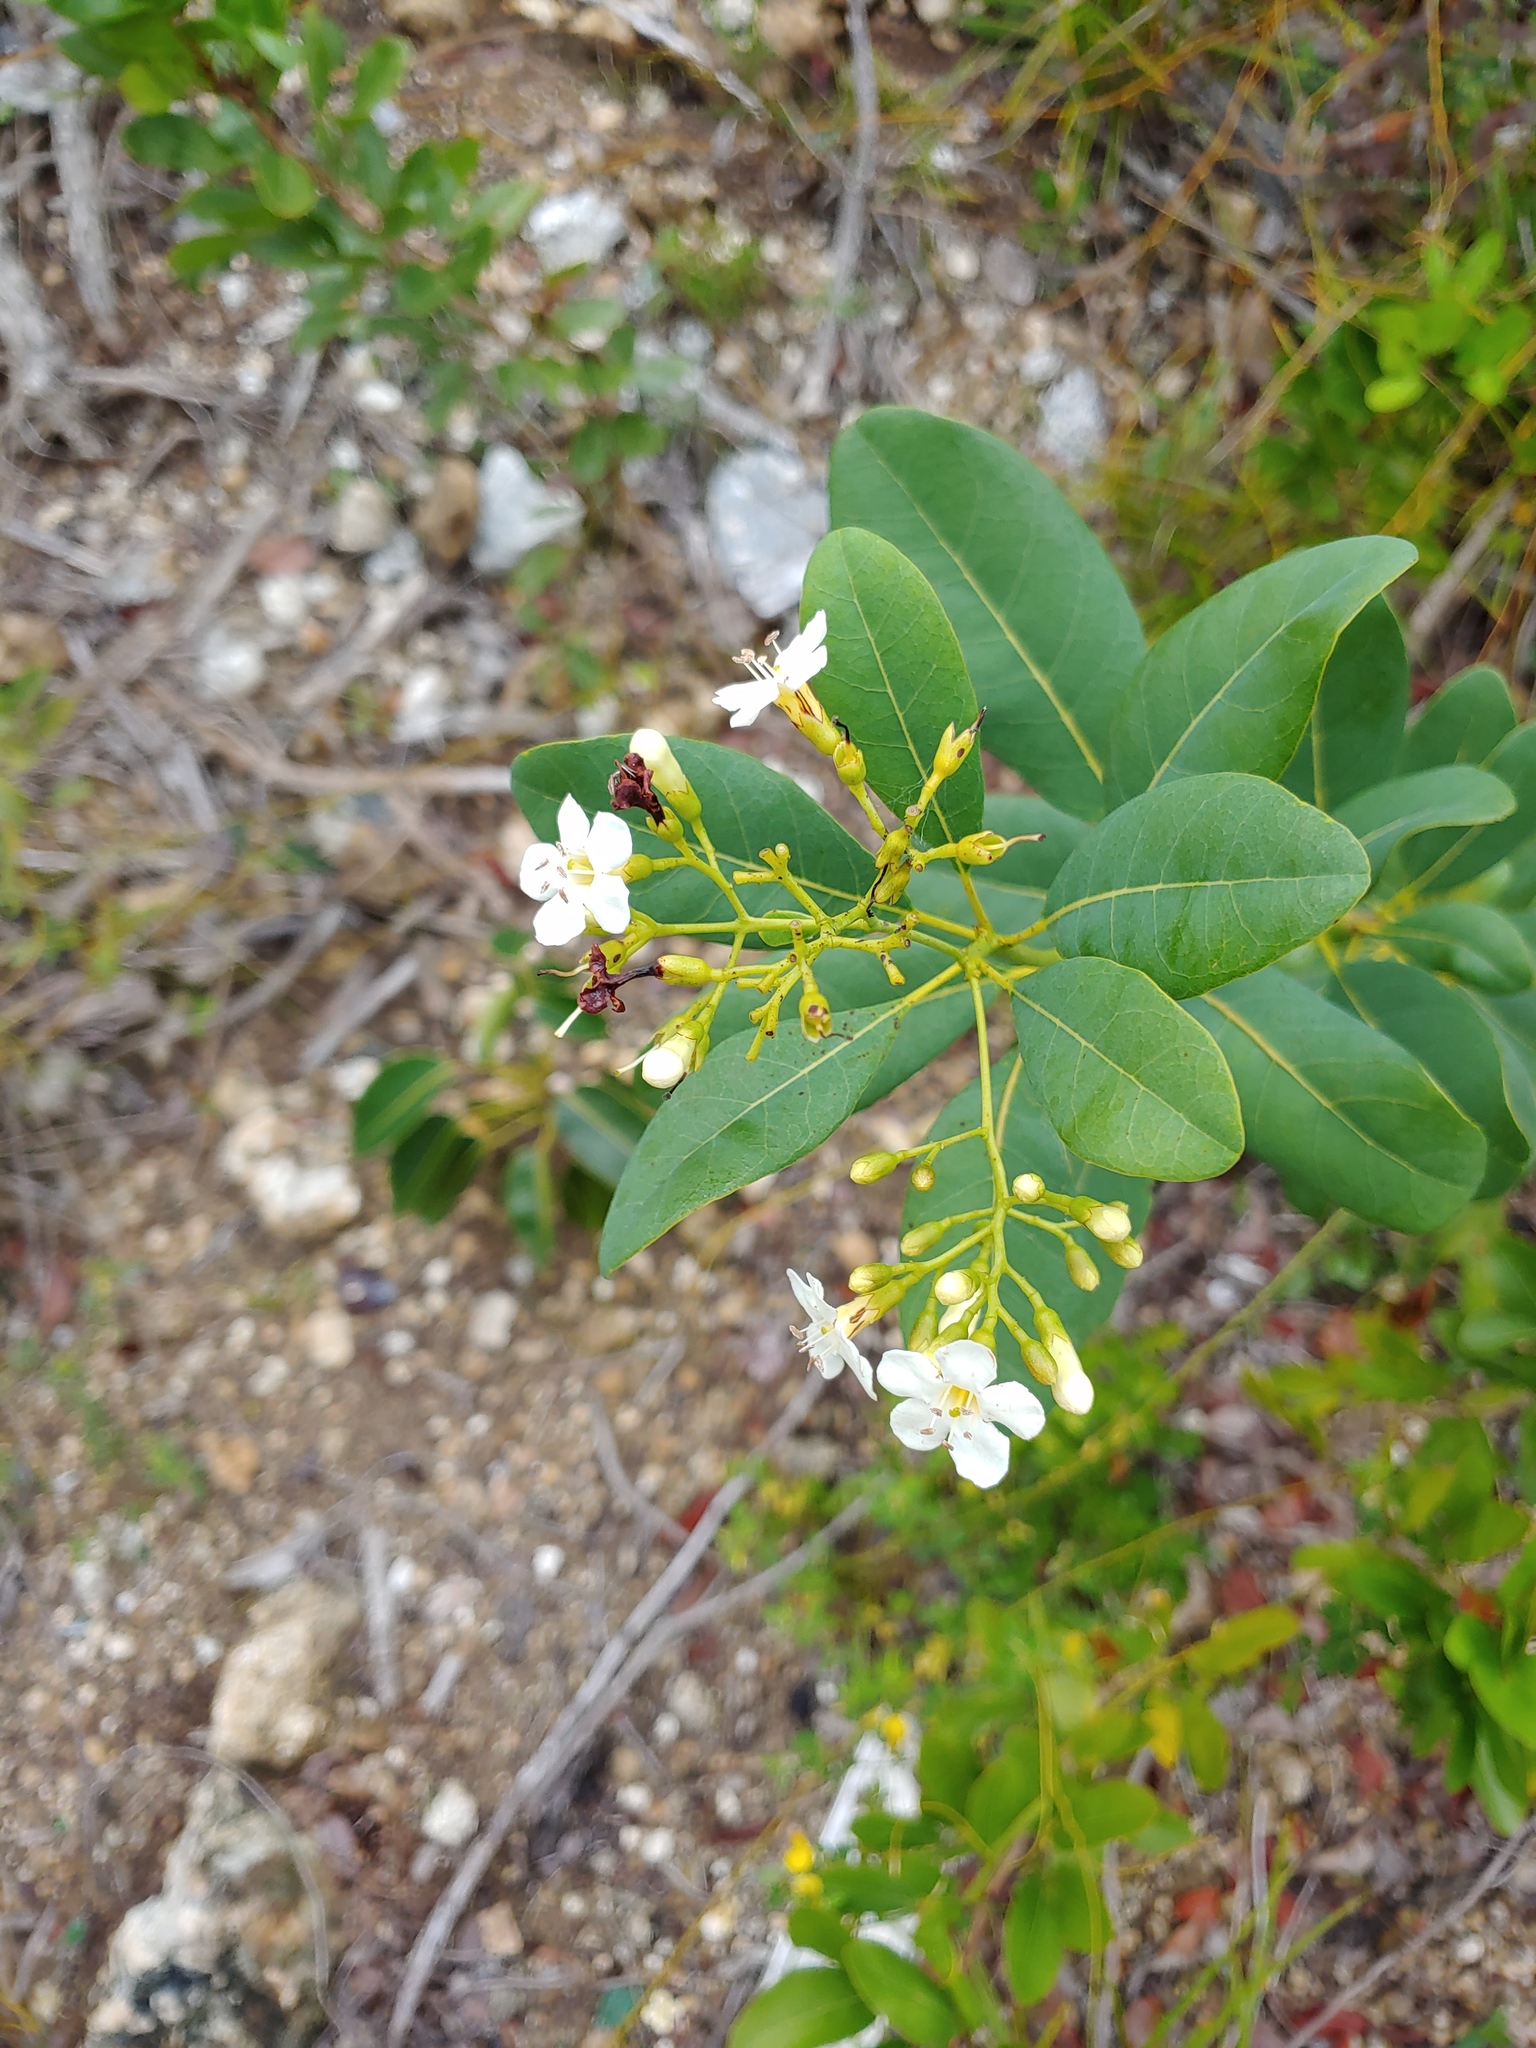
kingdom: Plantae
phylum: Tracheophyta
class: Magnoliopsida
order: Boraginales
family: Ehretiaceae
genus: Bourreria
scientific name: Bourreria succulenta
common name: Cherry
